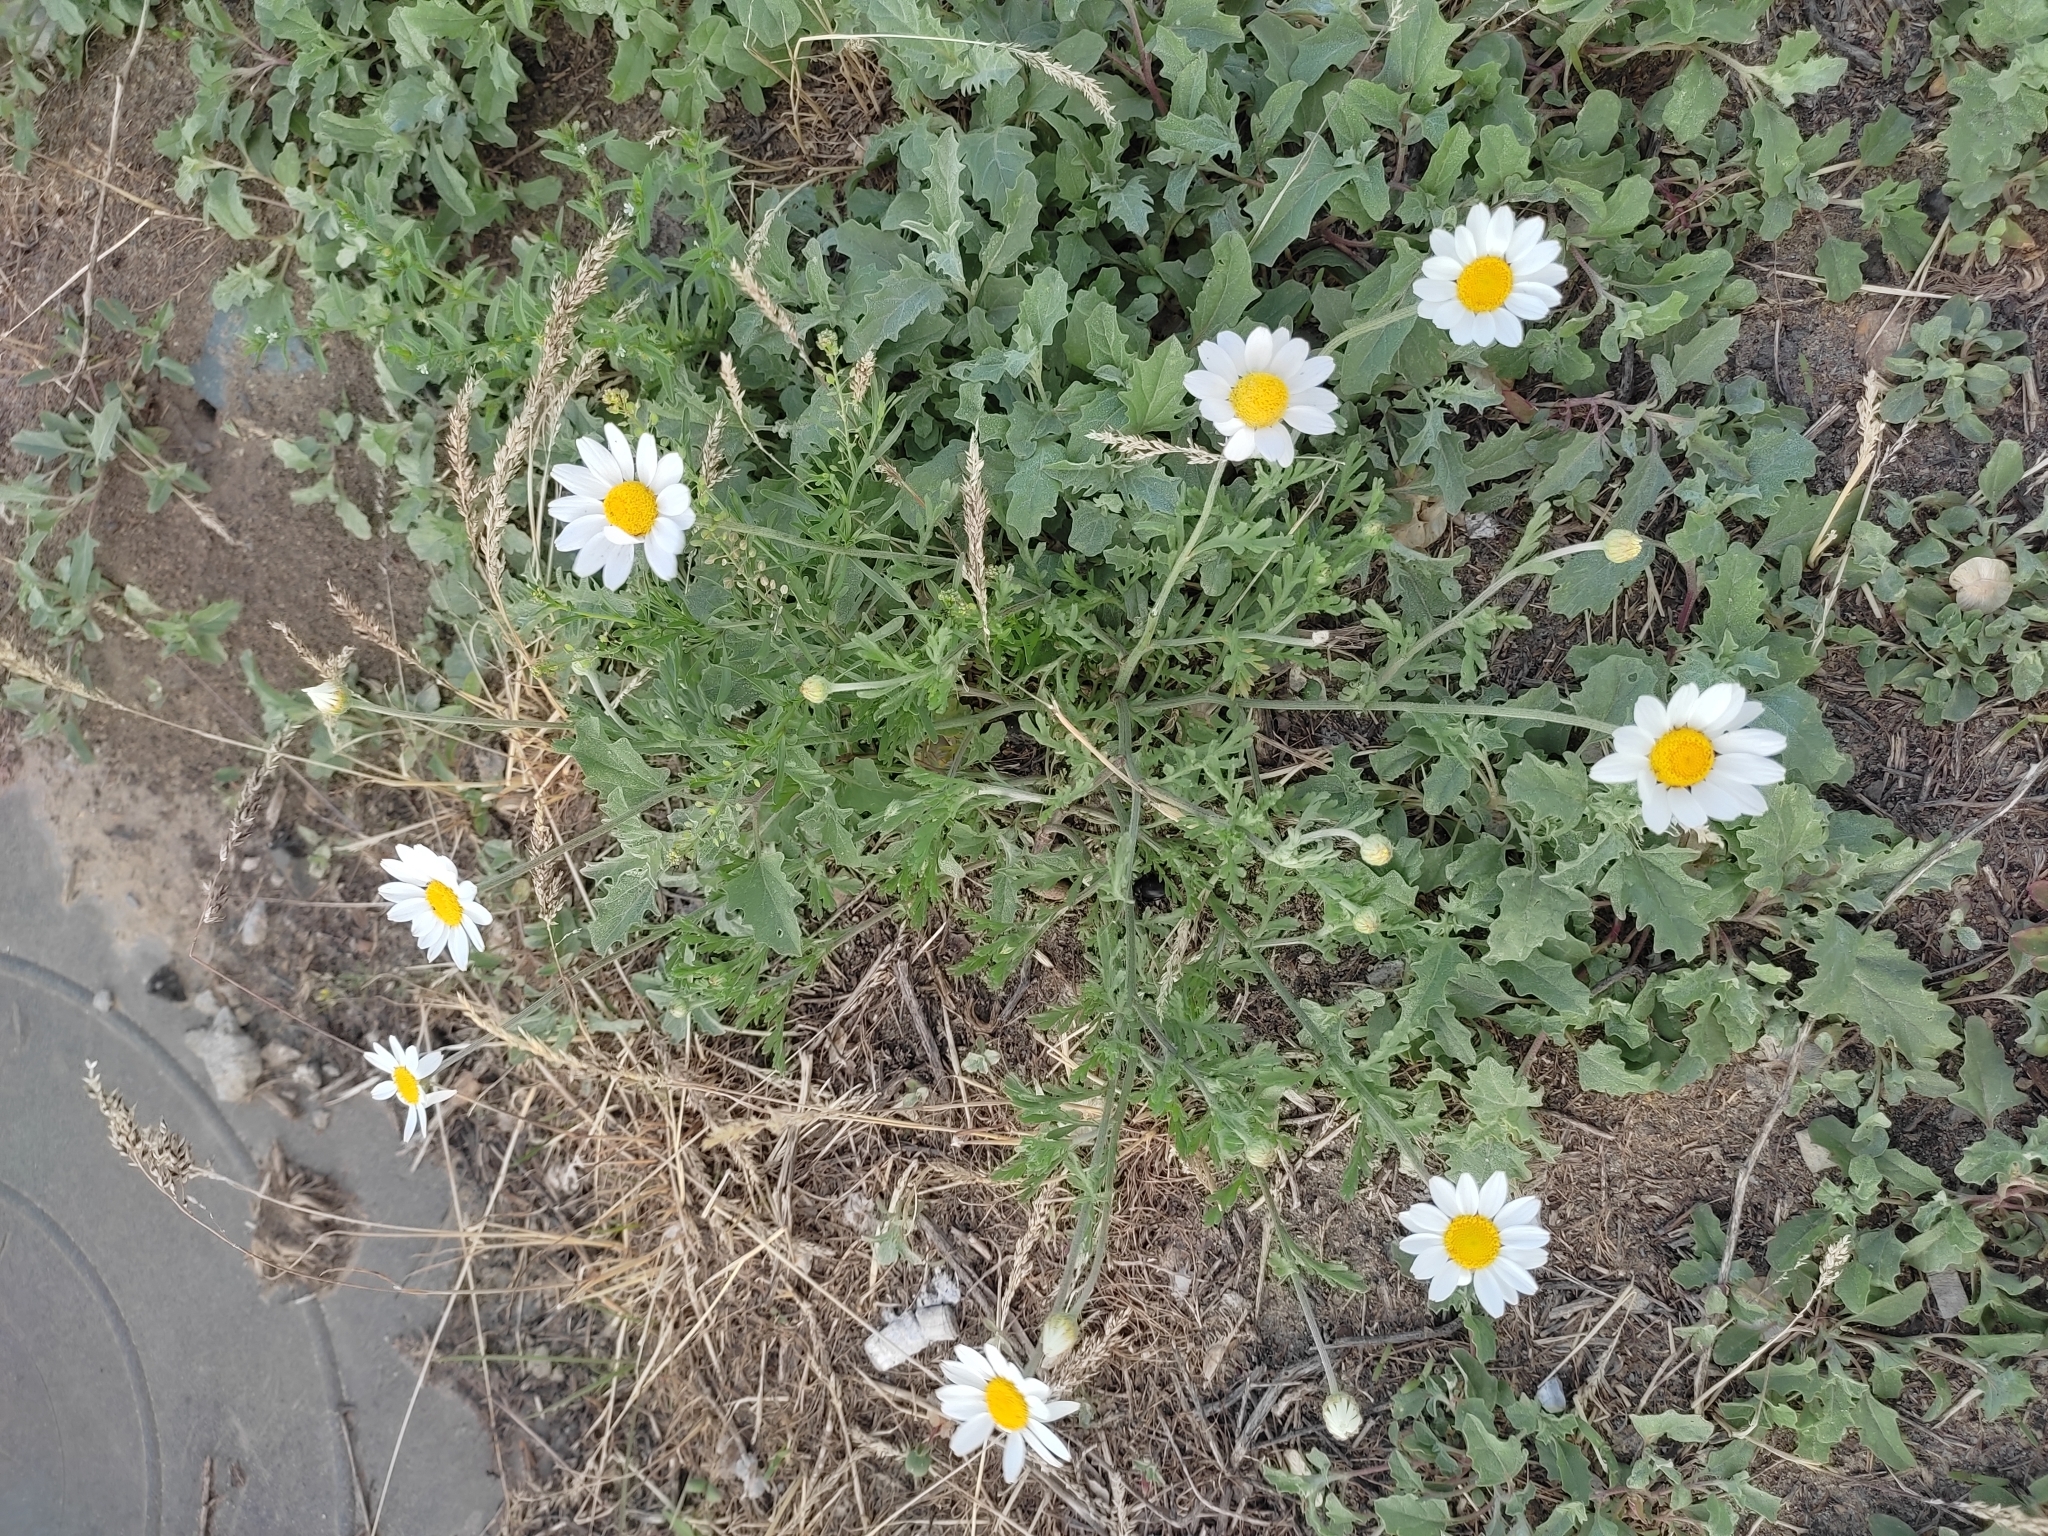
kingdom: Plantae
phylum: Tracheophyta
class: Magnoliopsida
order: Asterales
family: Asteraceae
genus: Anthemis
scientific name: Anthemis ruthenica
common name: Eastern chamomile
